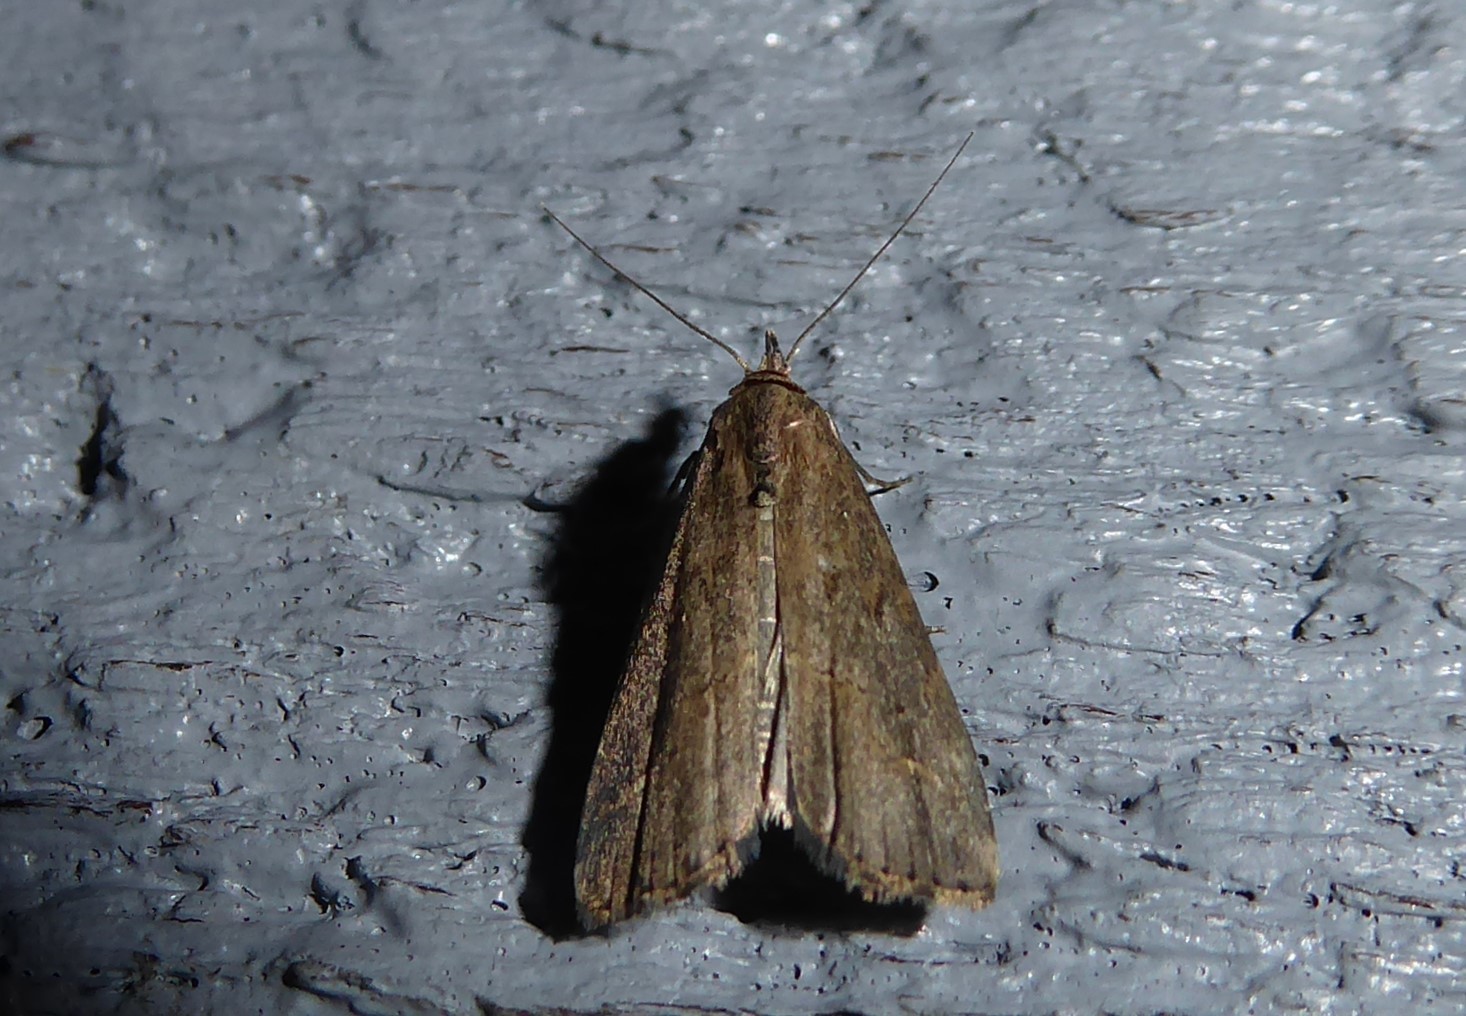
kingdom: Animalia
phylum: Arthropoda
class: Insecta
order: Lepidoptera
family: Erebidae
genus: Schrankia
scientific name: Schrankia costaestrigalis
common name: Pinion-streaked snout
